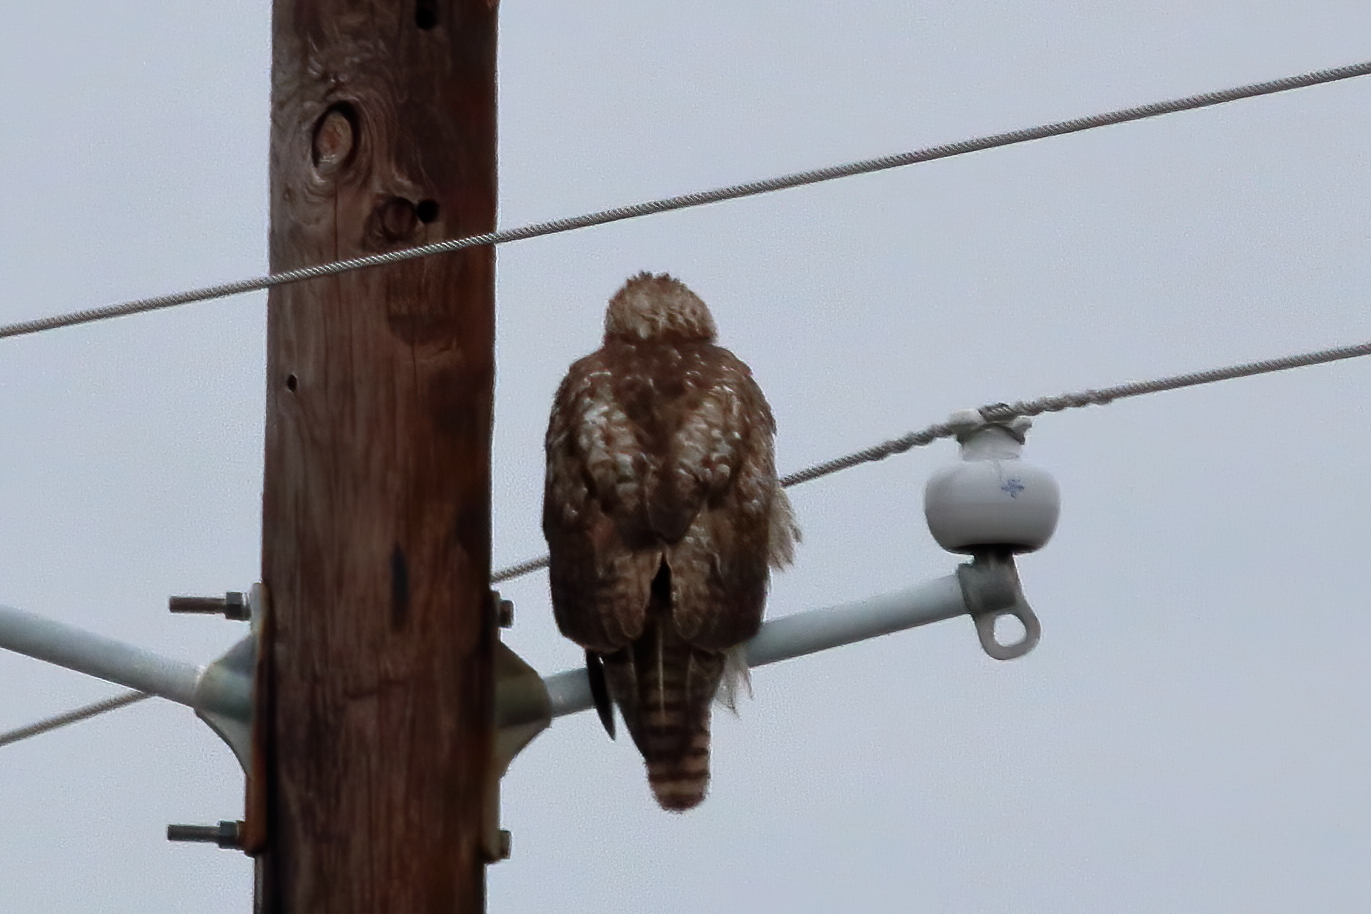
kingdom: Animalia
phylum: Chordata
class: Aves
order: Accipitriformes
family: Accipitridae
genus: Buteo
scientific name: Buteo jamaicensis
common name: Red-tailed hawk
